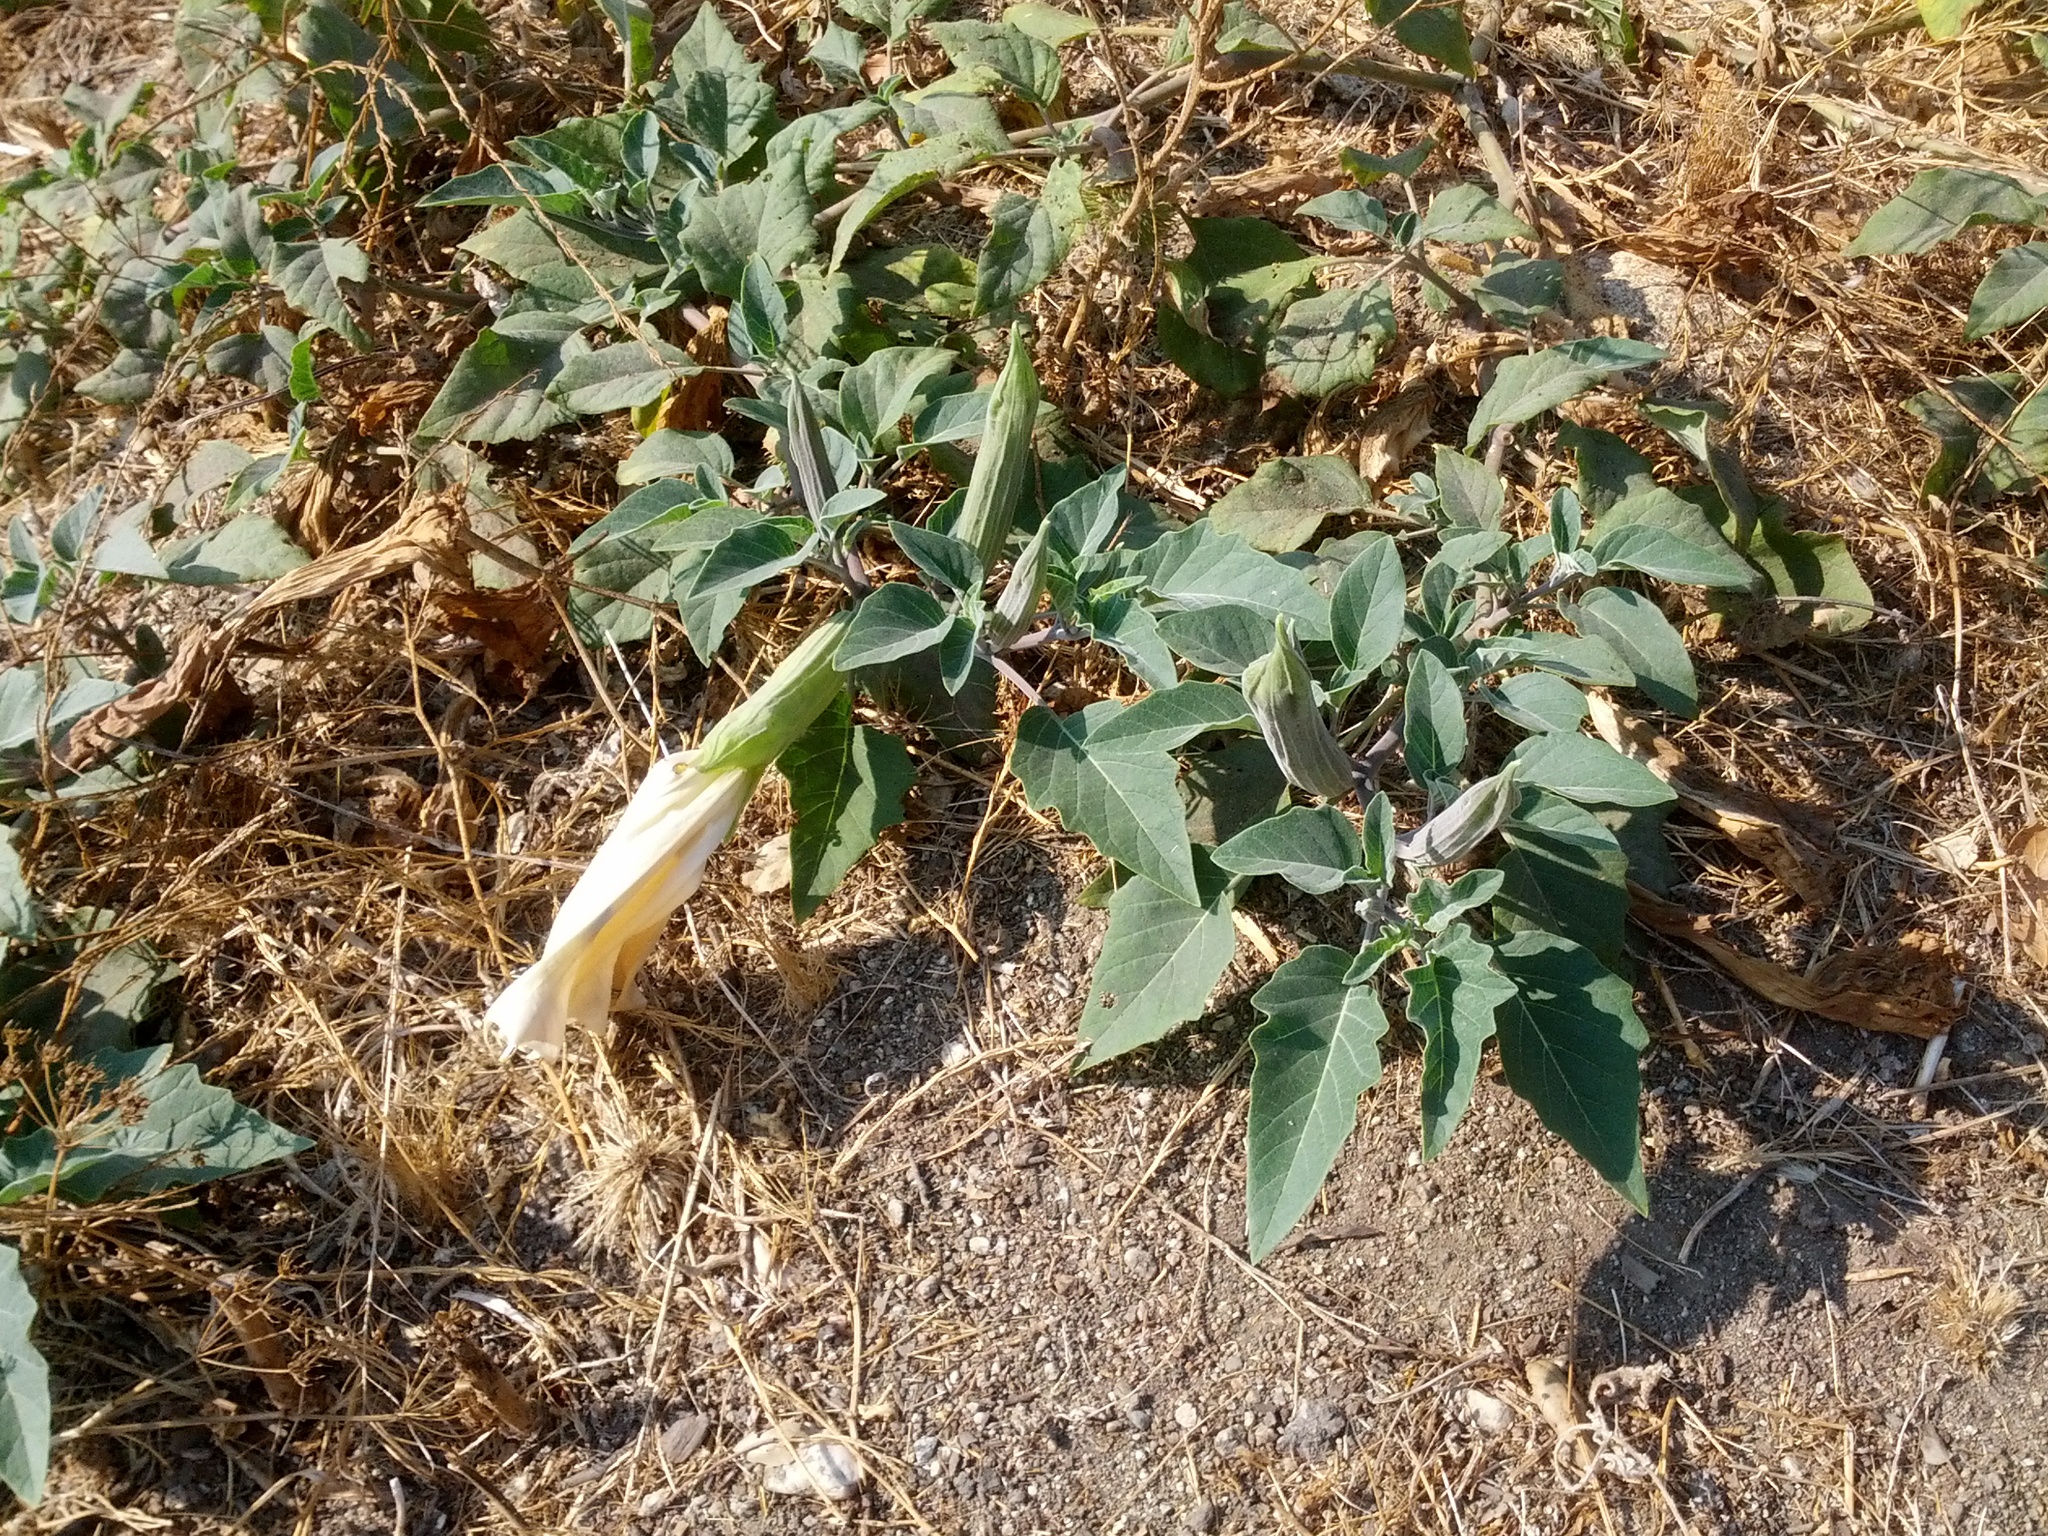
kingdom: Plantae
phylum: Tracheophyta
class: Magnoliopsida
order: Solanales
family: Solanaceae
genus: Datura
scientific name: Datura wrightii
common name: Sacred thorn-apple
